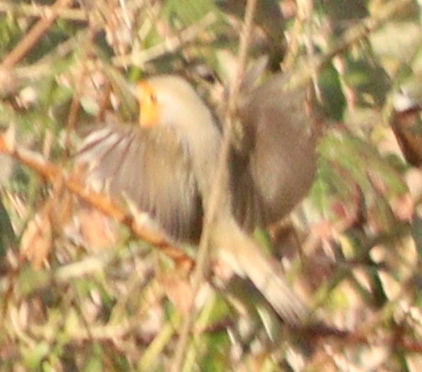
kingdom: Animalia
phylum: Chordata
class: Aves
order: Passeriformes
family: Muscicapidae
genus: Erithacus
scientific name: Erithacus rubecula
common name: European robin
